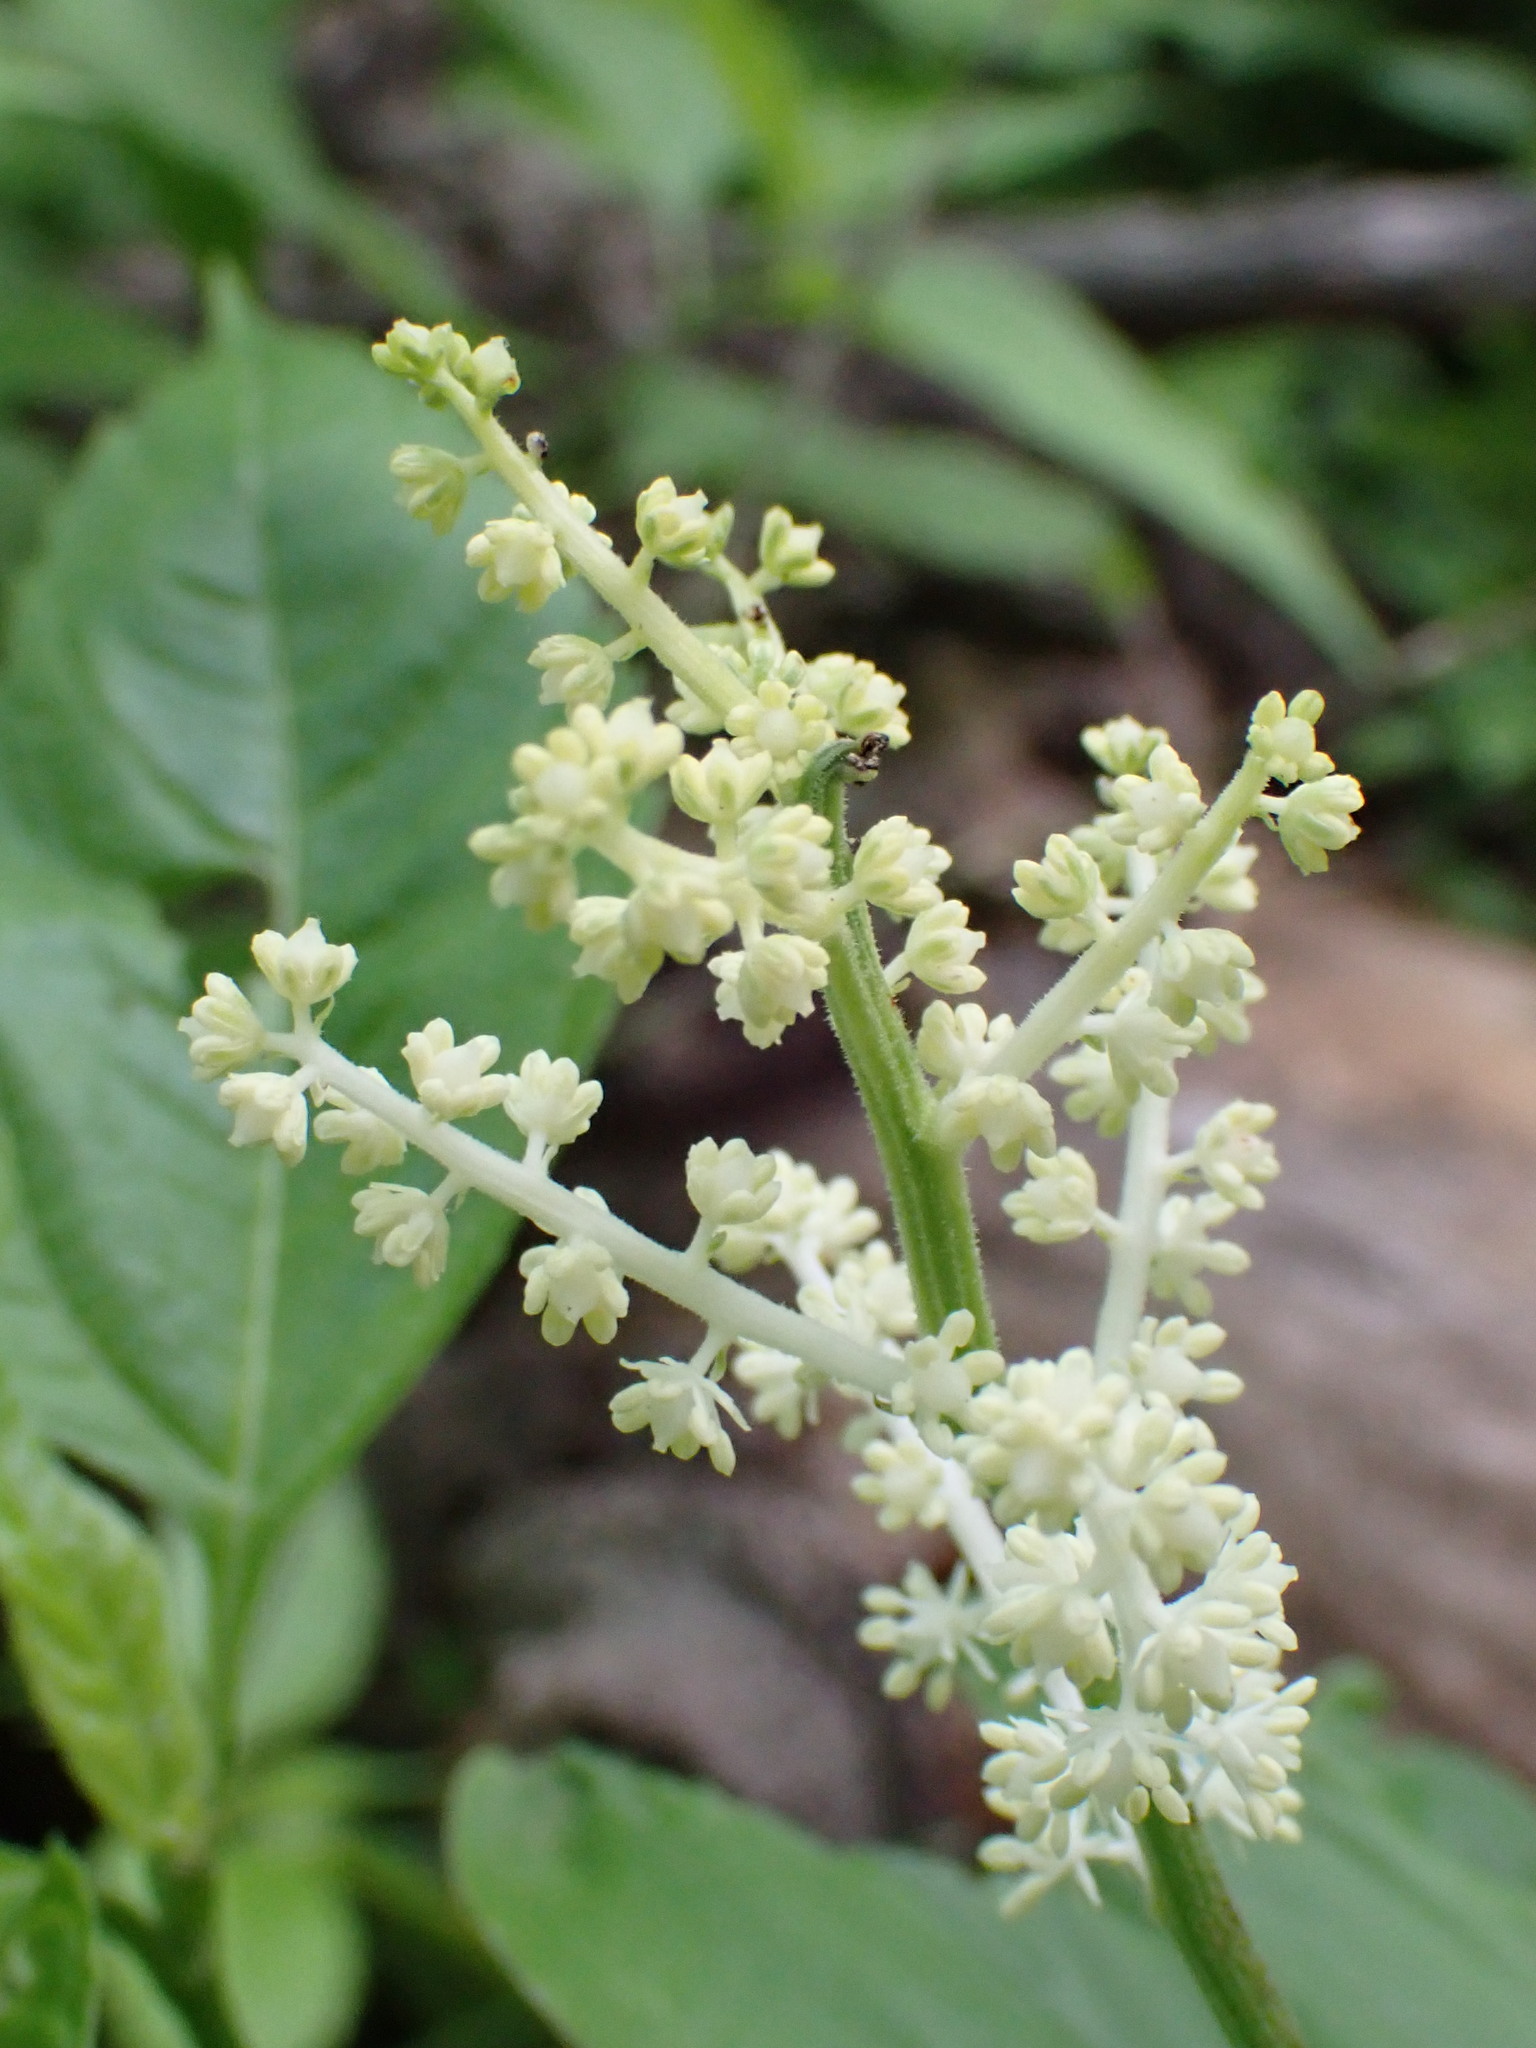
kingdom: Plantae
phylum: Tracheophyta
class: Liliopsida
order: Asparagales
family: Asparagaceae
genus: Maianthemum
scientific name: Maianthemum racemosum
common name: False spikenard
